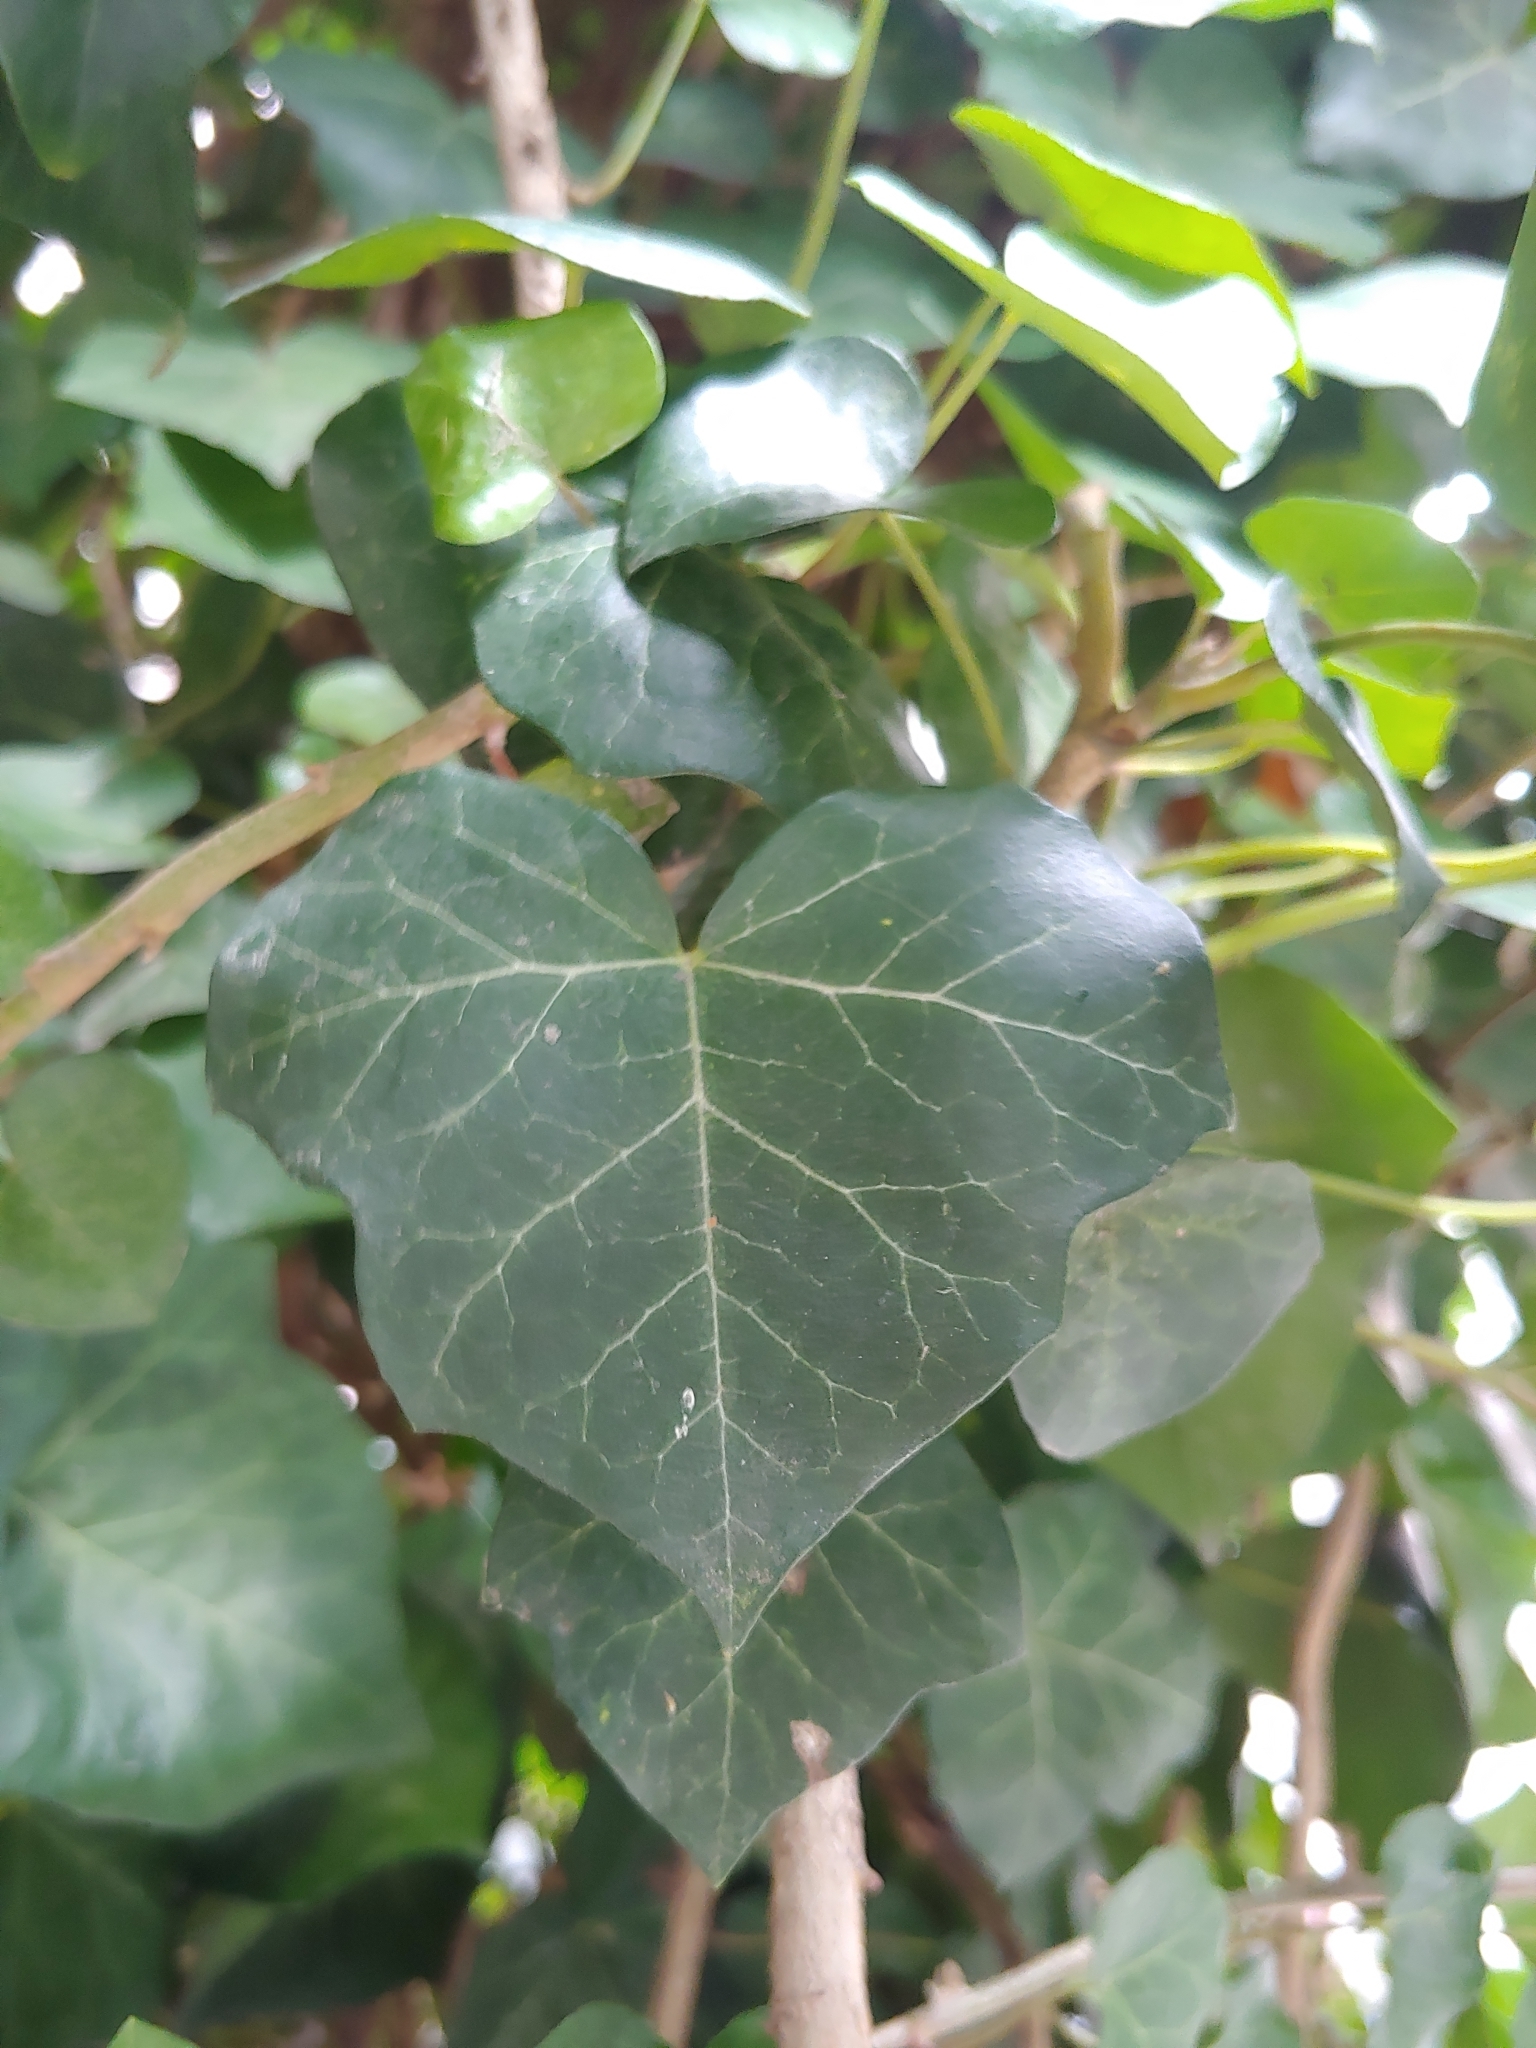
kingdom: Plantae
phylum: Tracheophyta
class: Magnoliopsida
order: Apiales
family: Araliaceae
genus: Hedera
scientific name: Hedera helix
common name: Ivy
